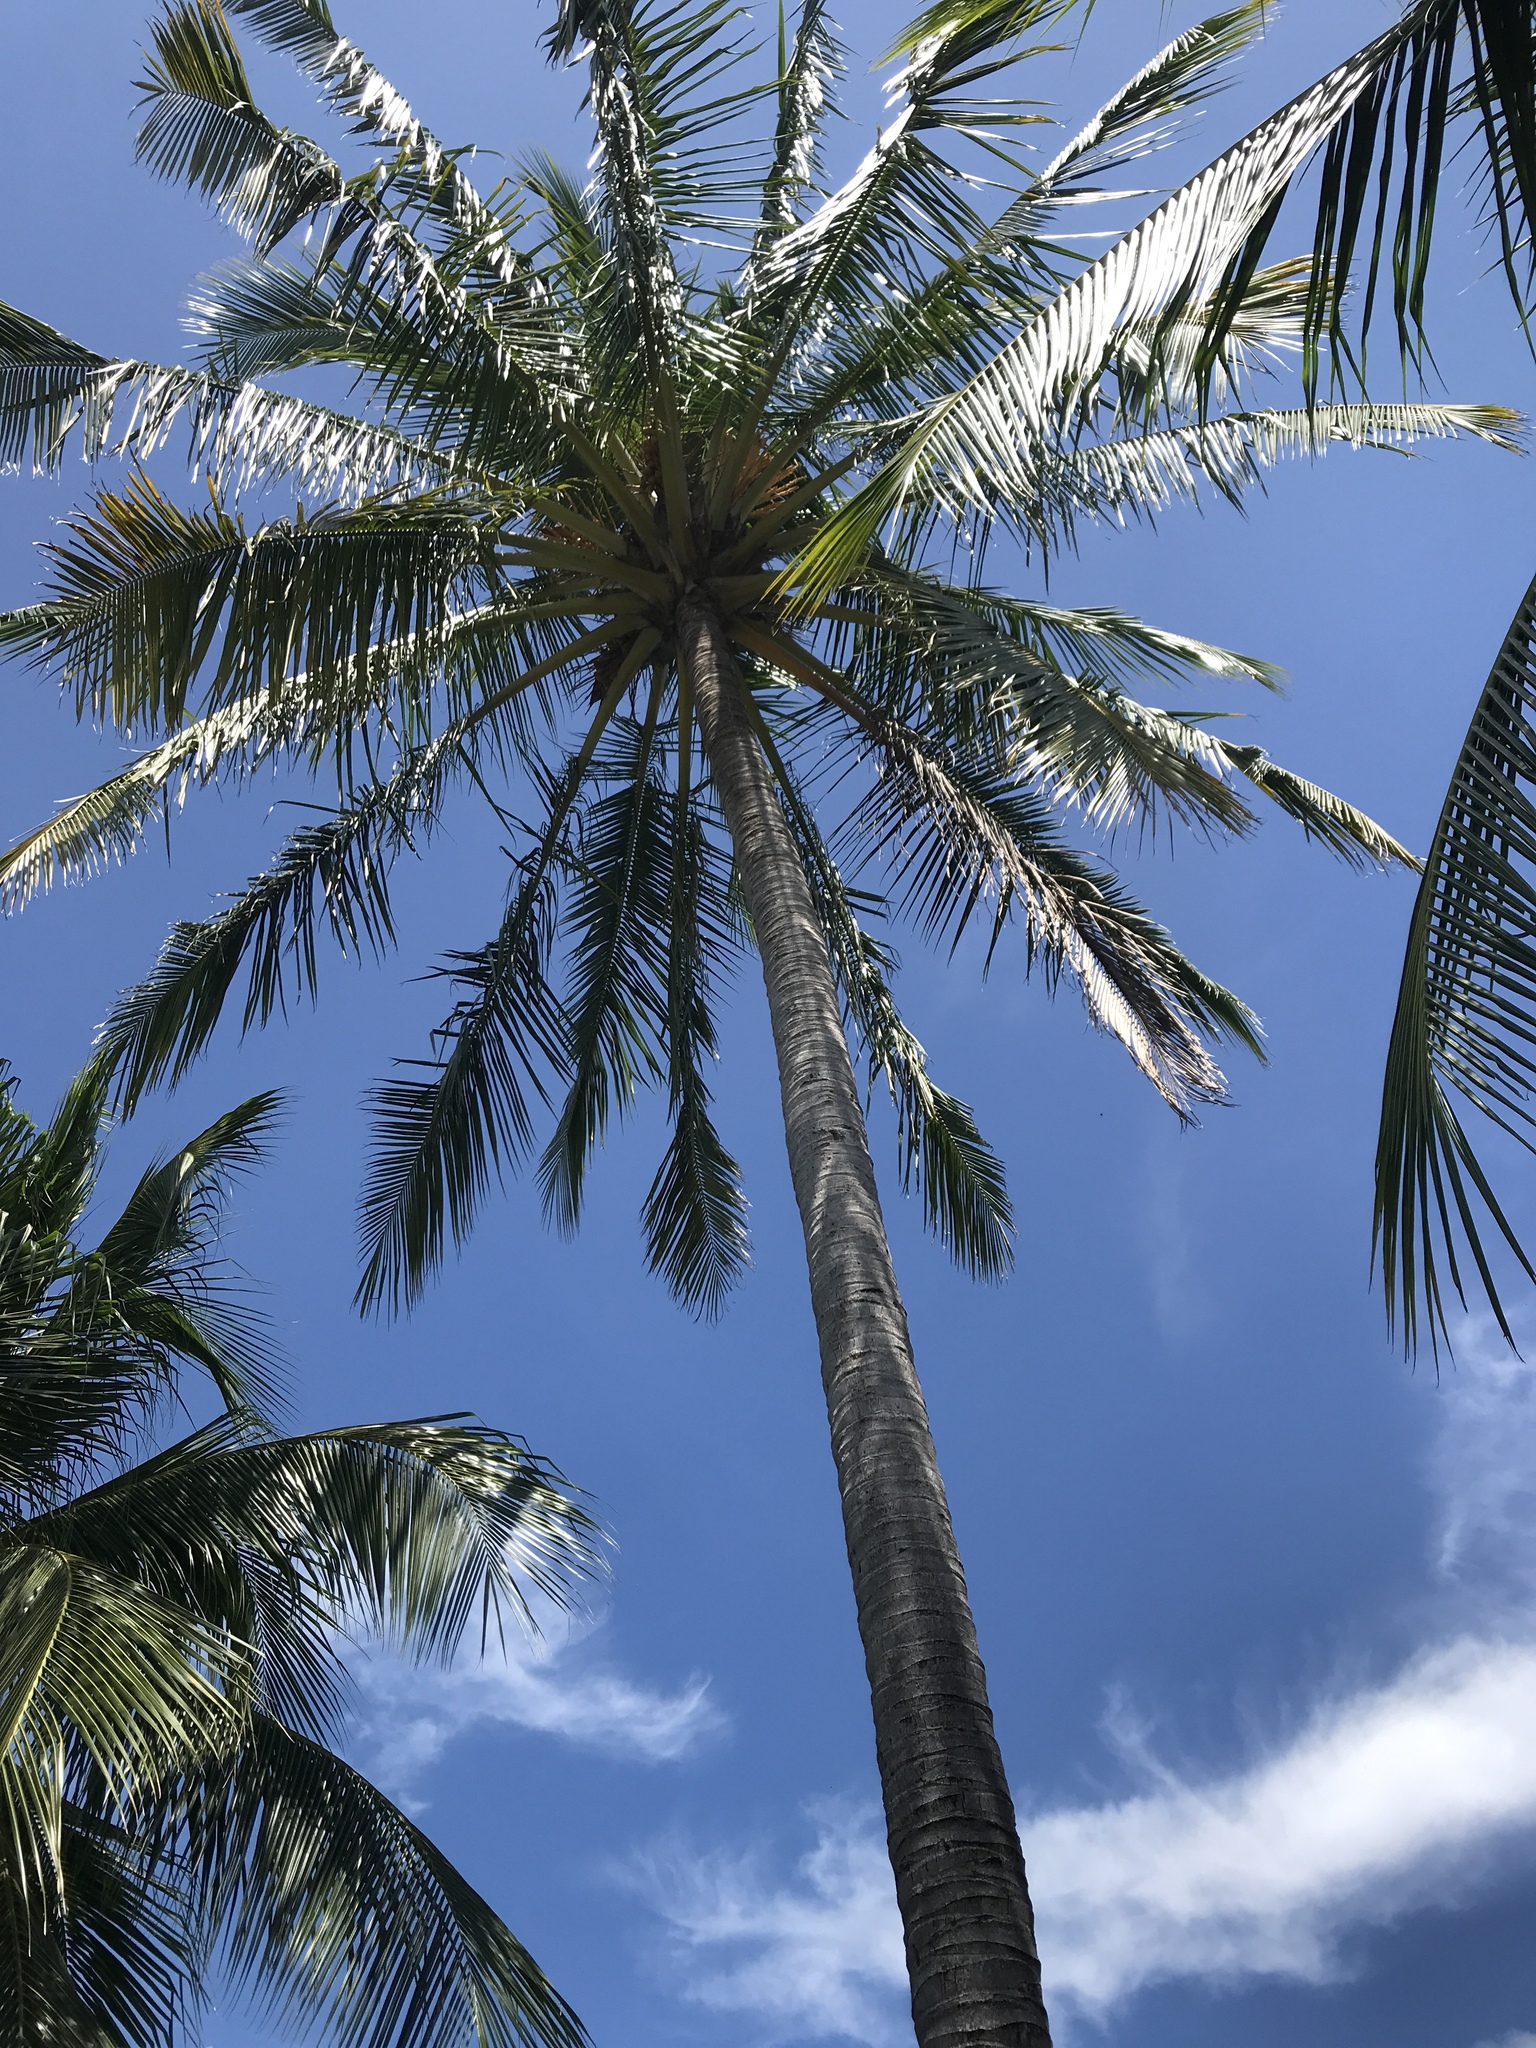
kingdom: Plantae
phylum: Tracheophyta
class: Liliopsida
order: Arecales
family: Arecaceae
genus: Cocos
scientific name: Cocos nucifera
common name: Coconut palm
